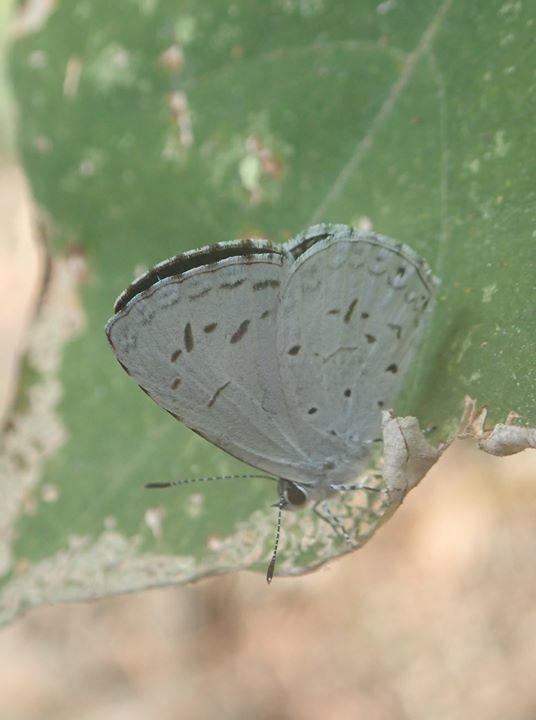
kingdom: Animalia
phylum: Arthropoda
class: Insecta
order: Lepidoptera
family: Lycaenidae
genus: Acytolepis
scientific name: Acytolepis puspa
